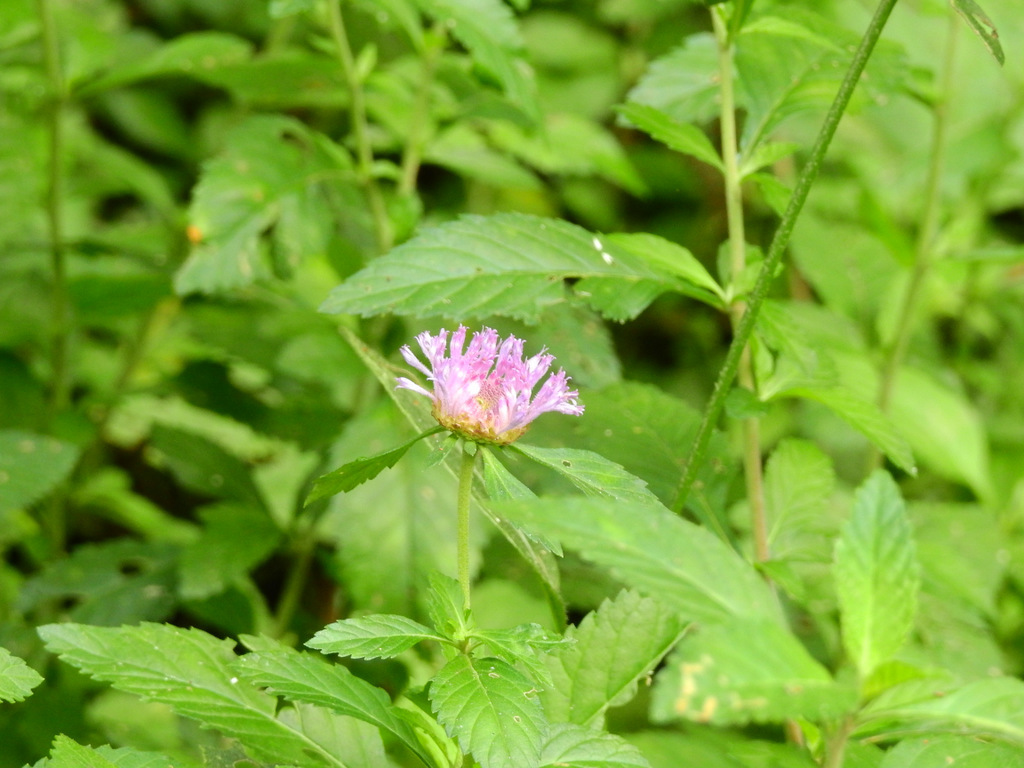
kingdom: Plantae
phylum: Tracheophyta
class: Magnoliopsida
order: Asterales
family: Asteraceae
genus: Centratherum
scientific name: Centratherum punctatum
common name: Larkdaisy
